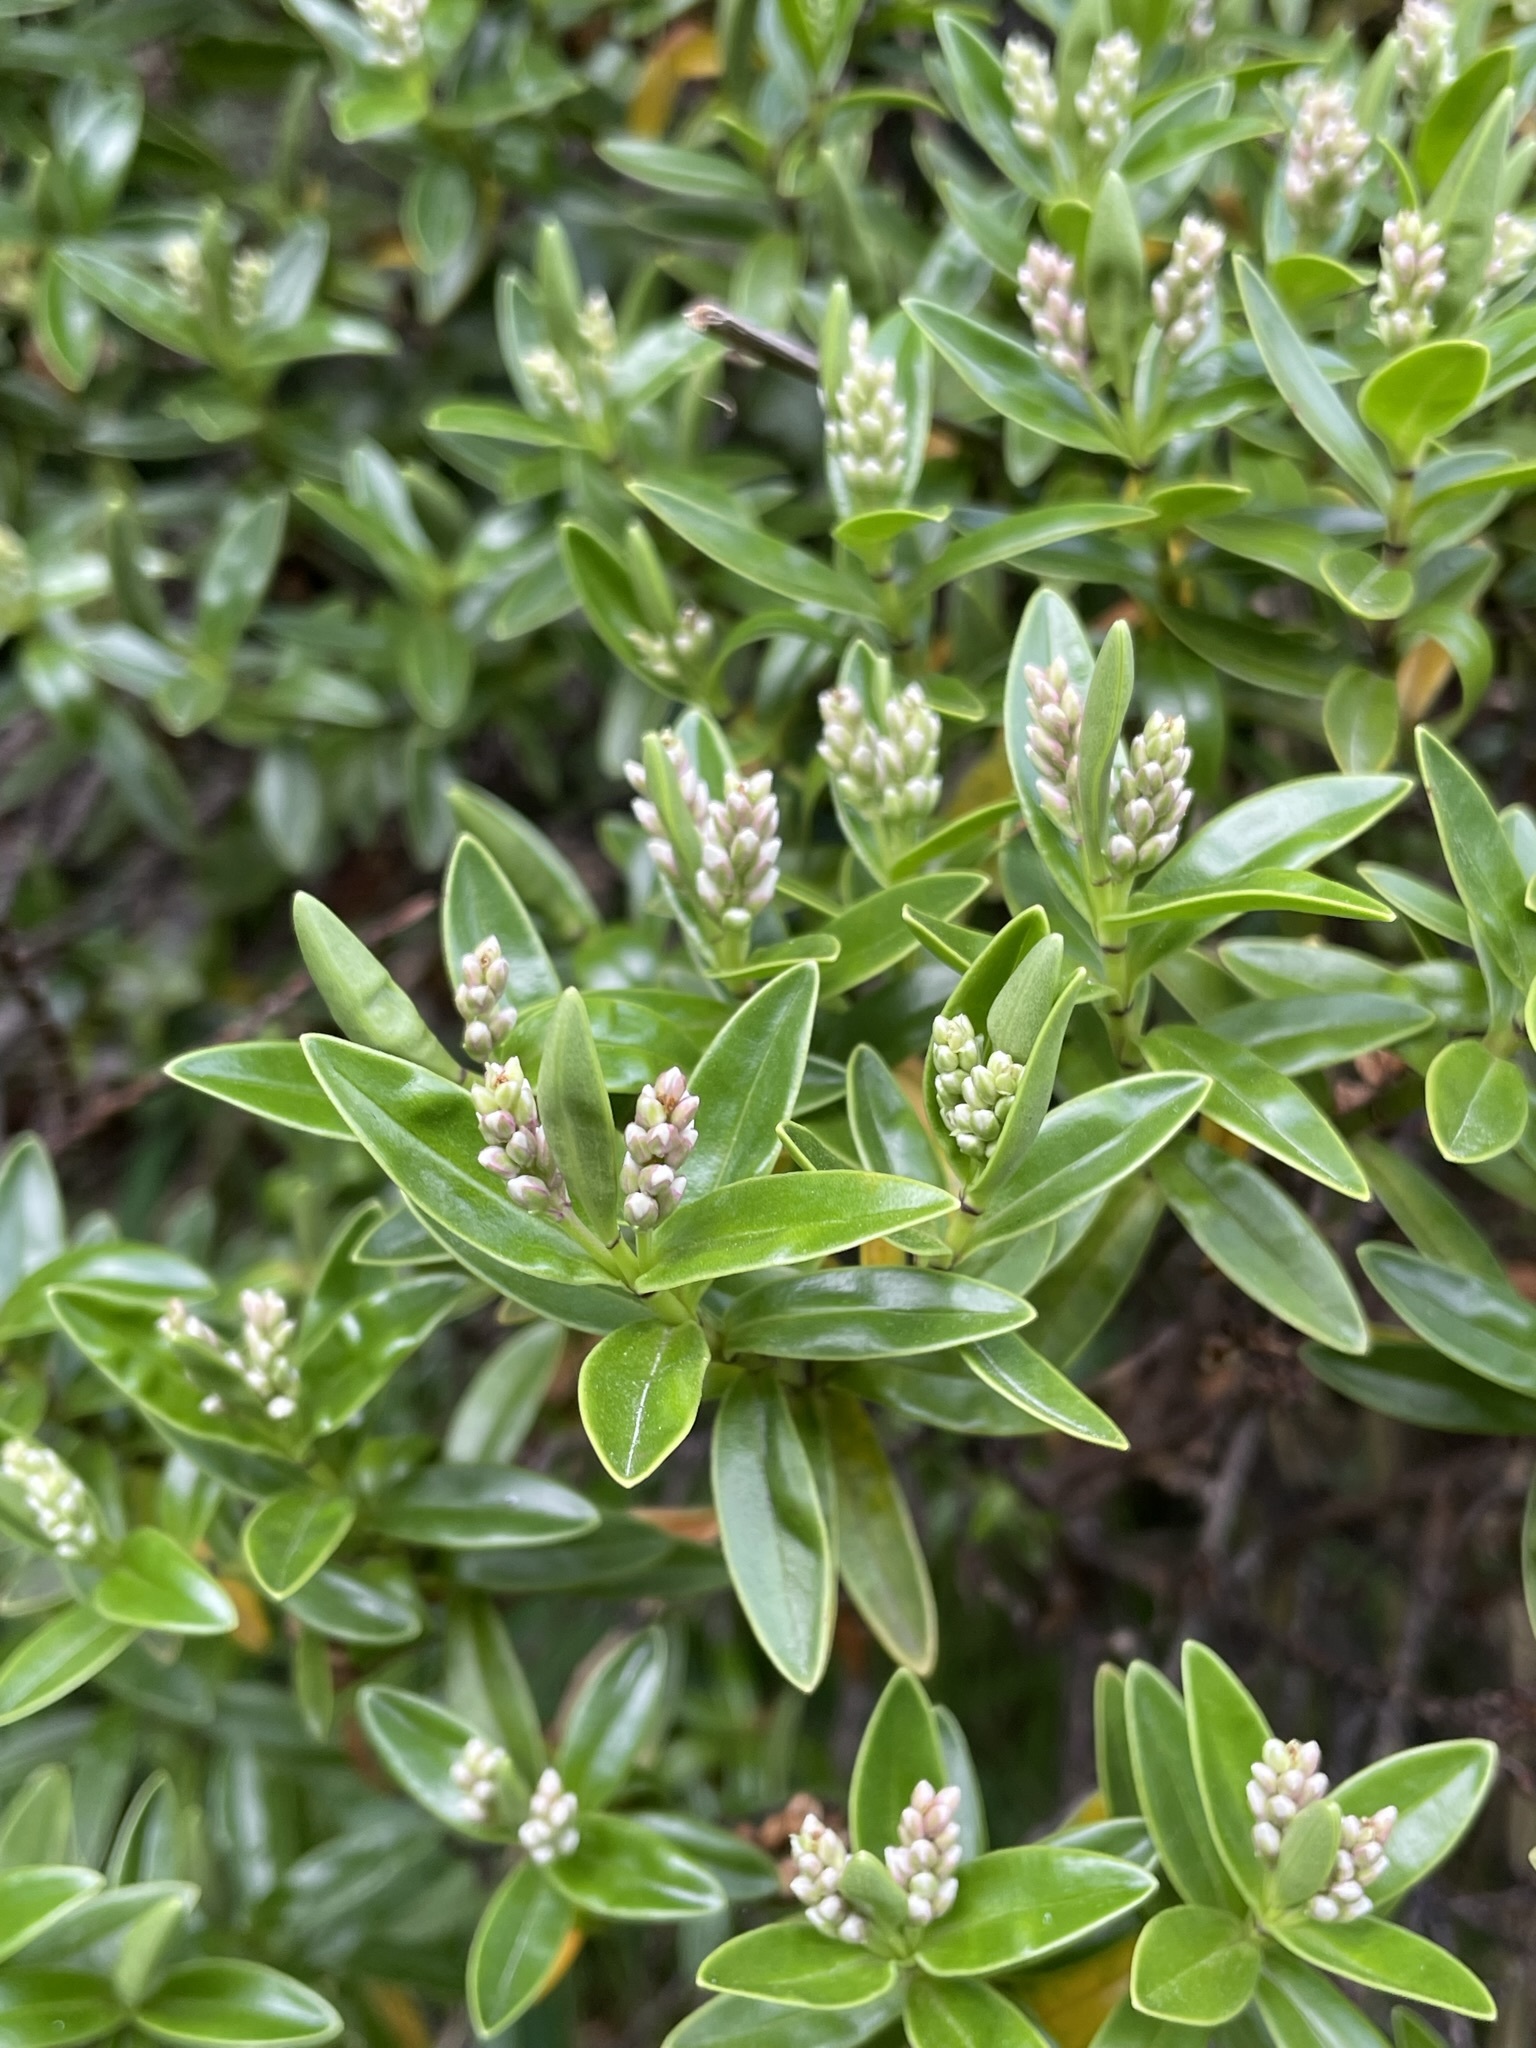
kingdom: Plantae
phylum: Tracheophyta
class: Magnoliopsida
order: Lamiales
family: Plantaginaceae
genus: Veronica
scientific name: Veronica subalpina
